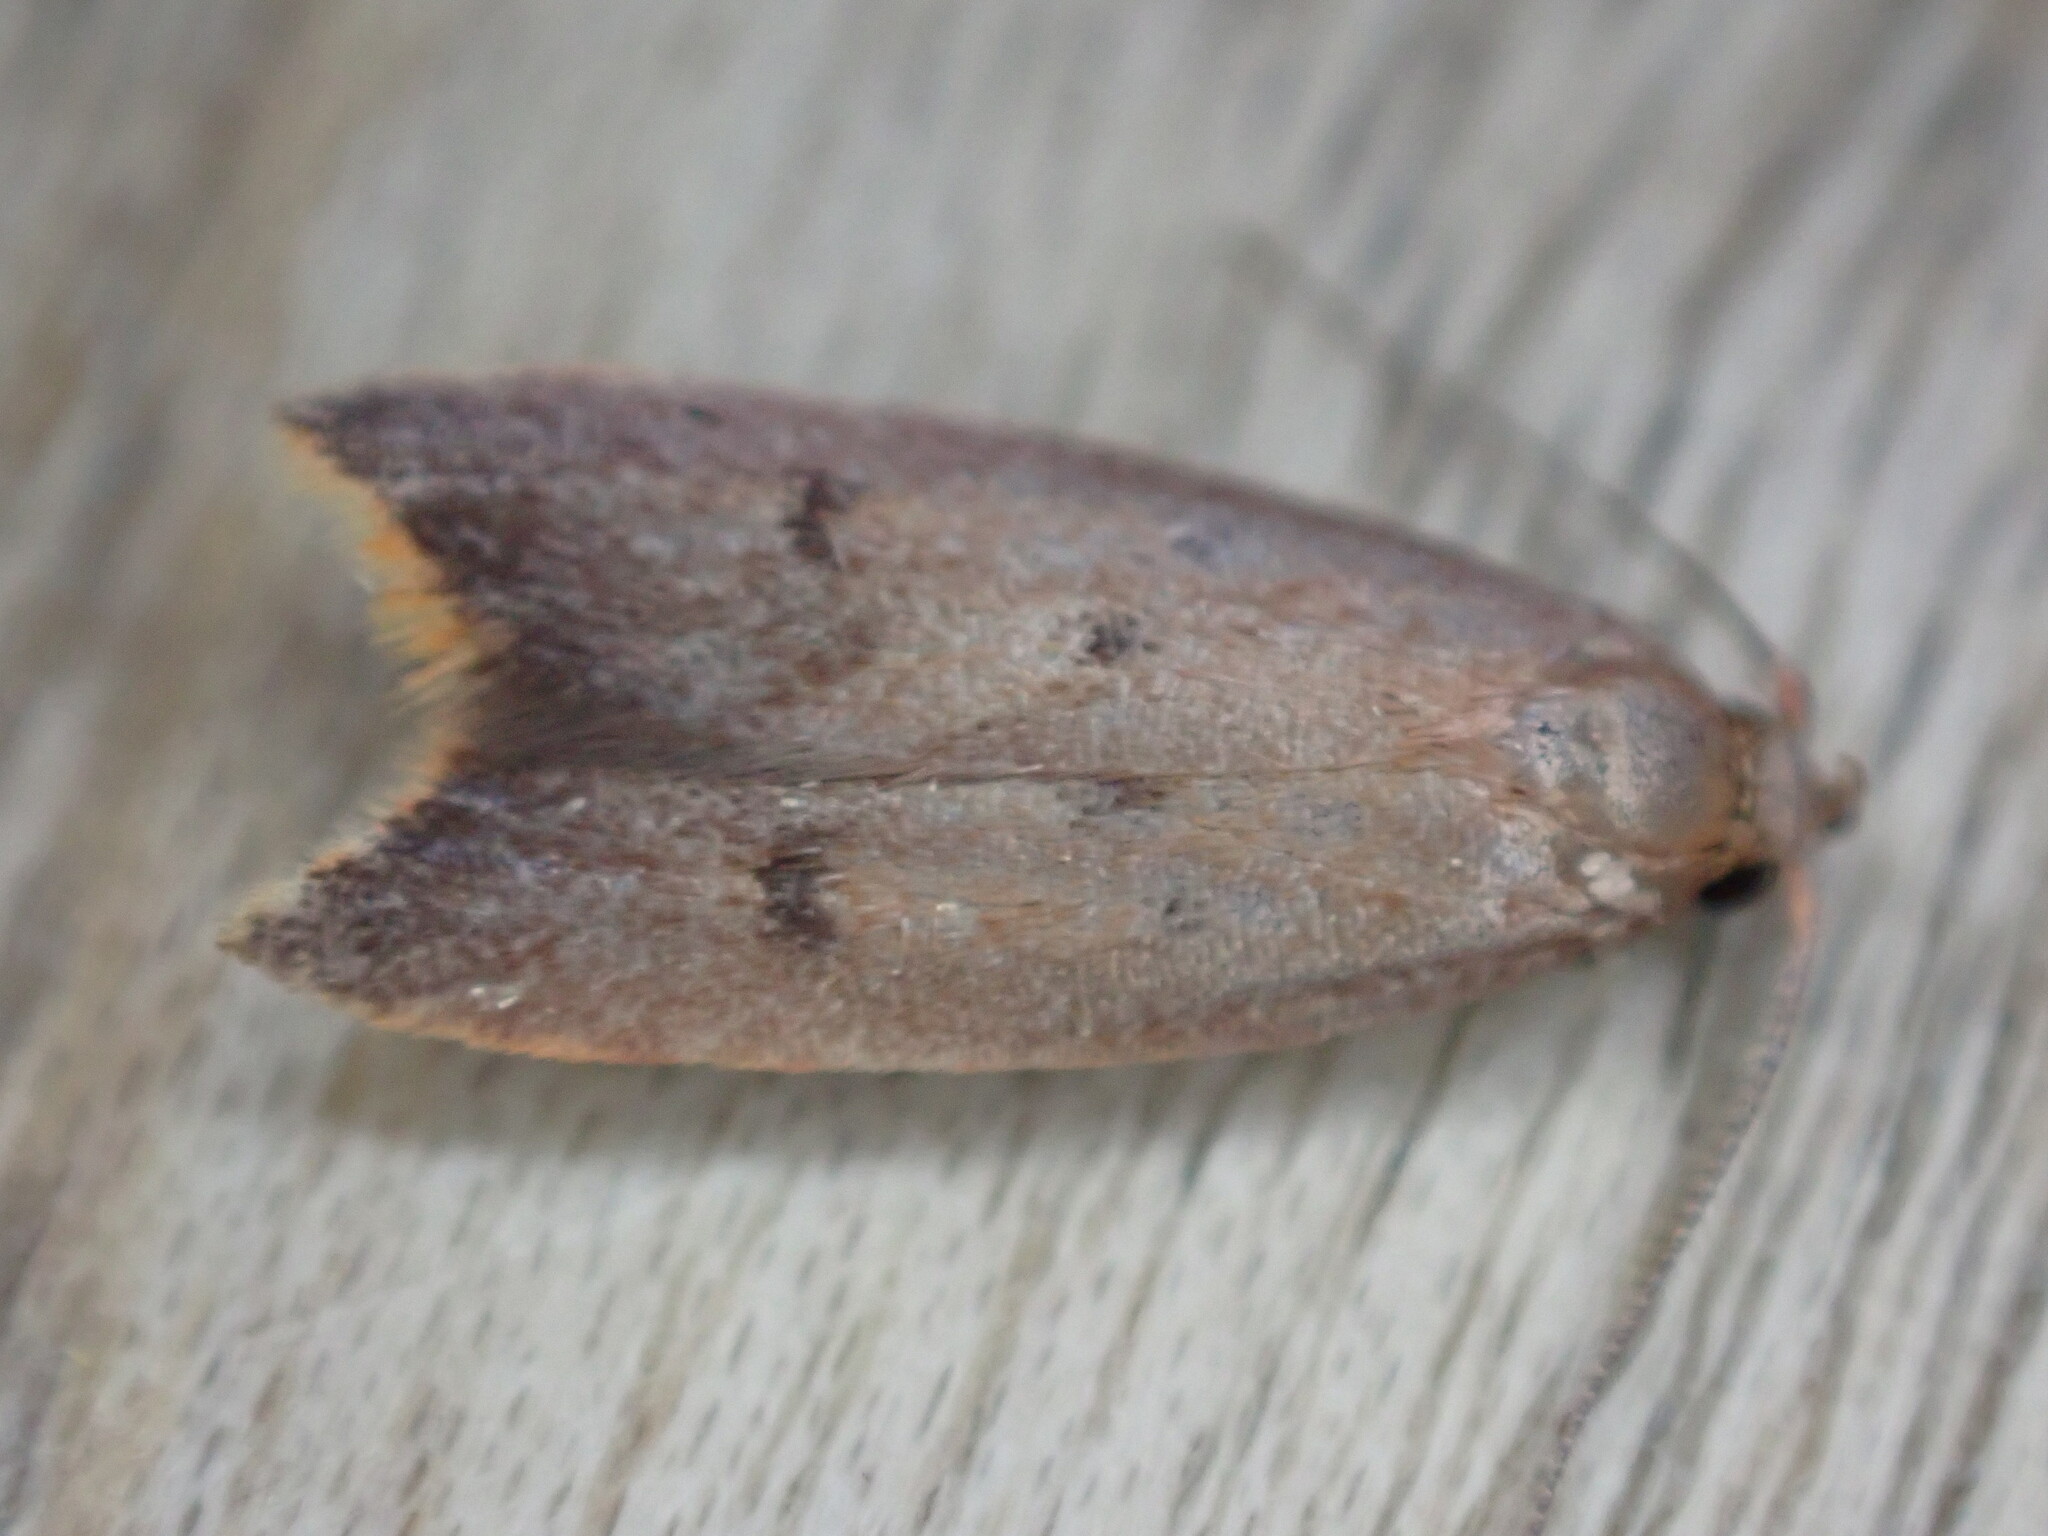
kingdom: Animalia
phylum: Arthropoda
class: Insecta
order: Lepidoptera
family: Oecophoridae
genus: Tachystola
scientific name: Tachystola acroxantha
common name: Ruddy streak
